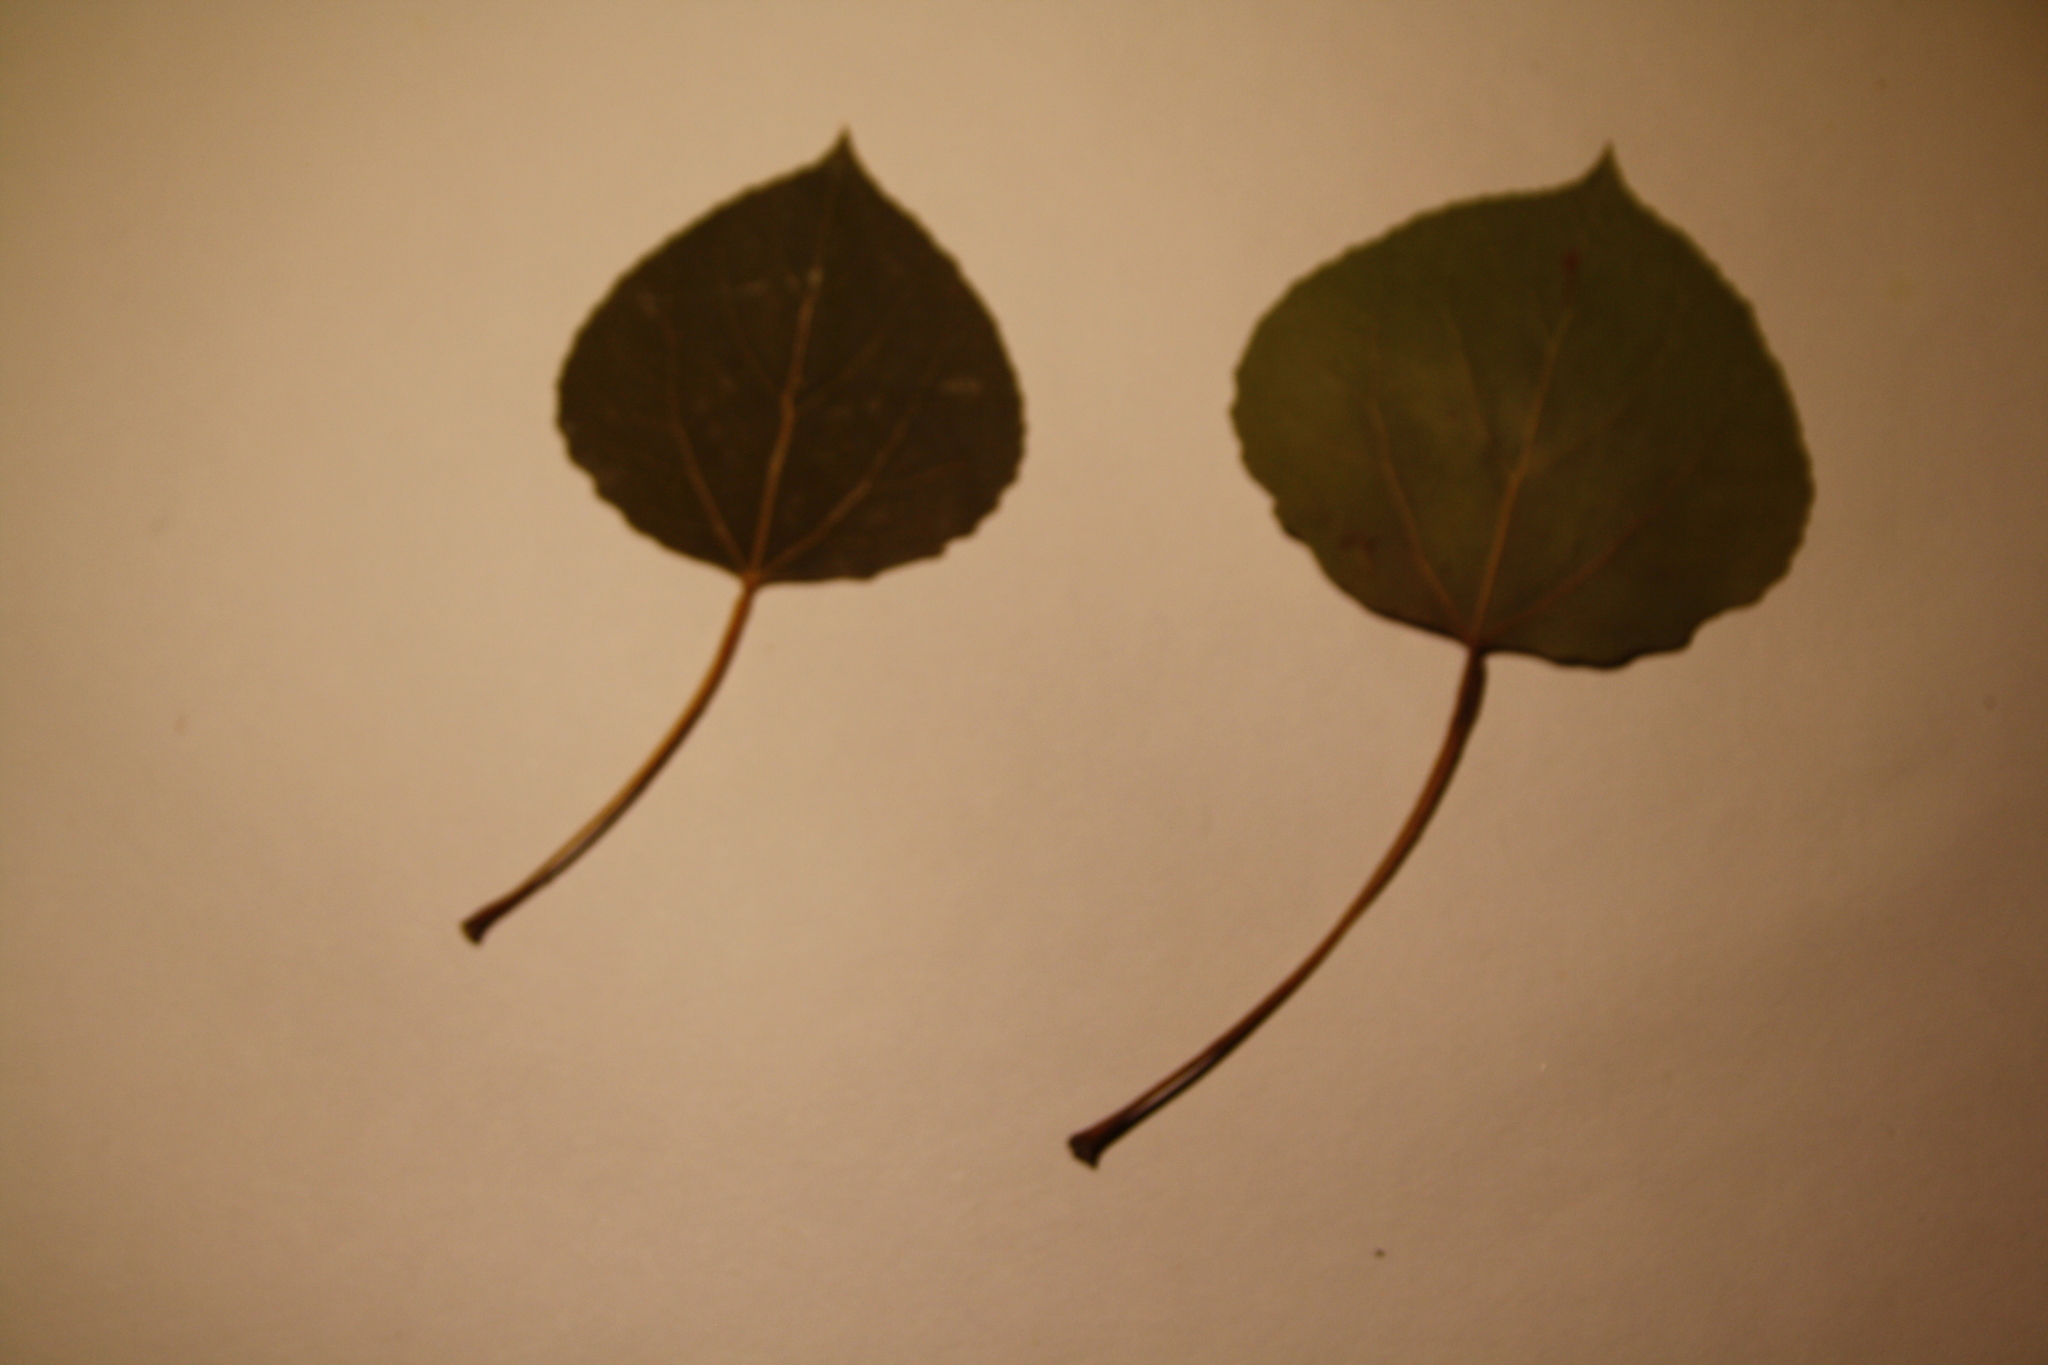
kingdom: Plantae
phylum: Tracheophyta
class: Magnoliopsida
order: Malpighiales
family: Salicaceae
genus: Populus
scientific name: Populus tremuloides
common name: Quaking aspen
